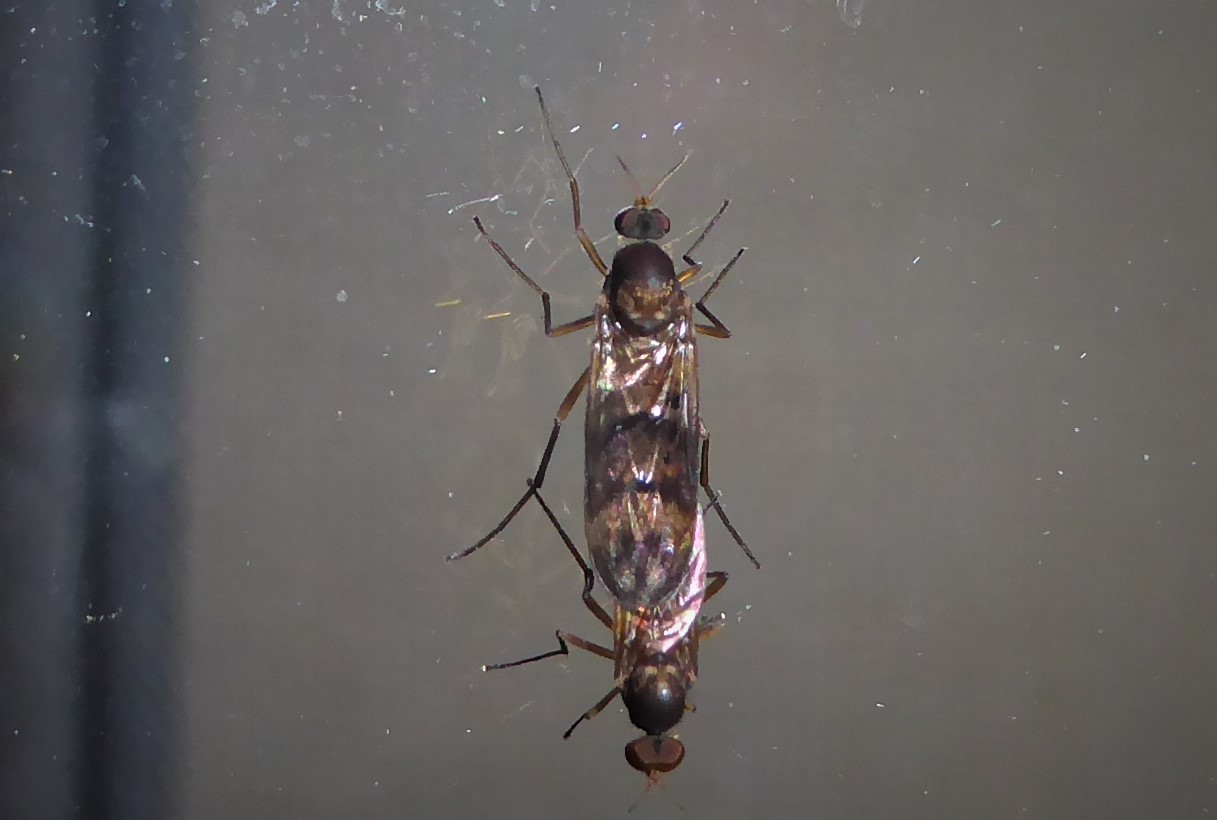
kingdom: Animalia
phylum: Arthropoda
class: Insecta
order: Diptera
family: Anisopodidae
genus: Sylvicola
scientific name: Sylvicola neozelandicus
